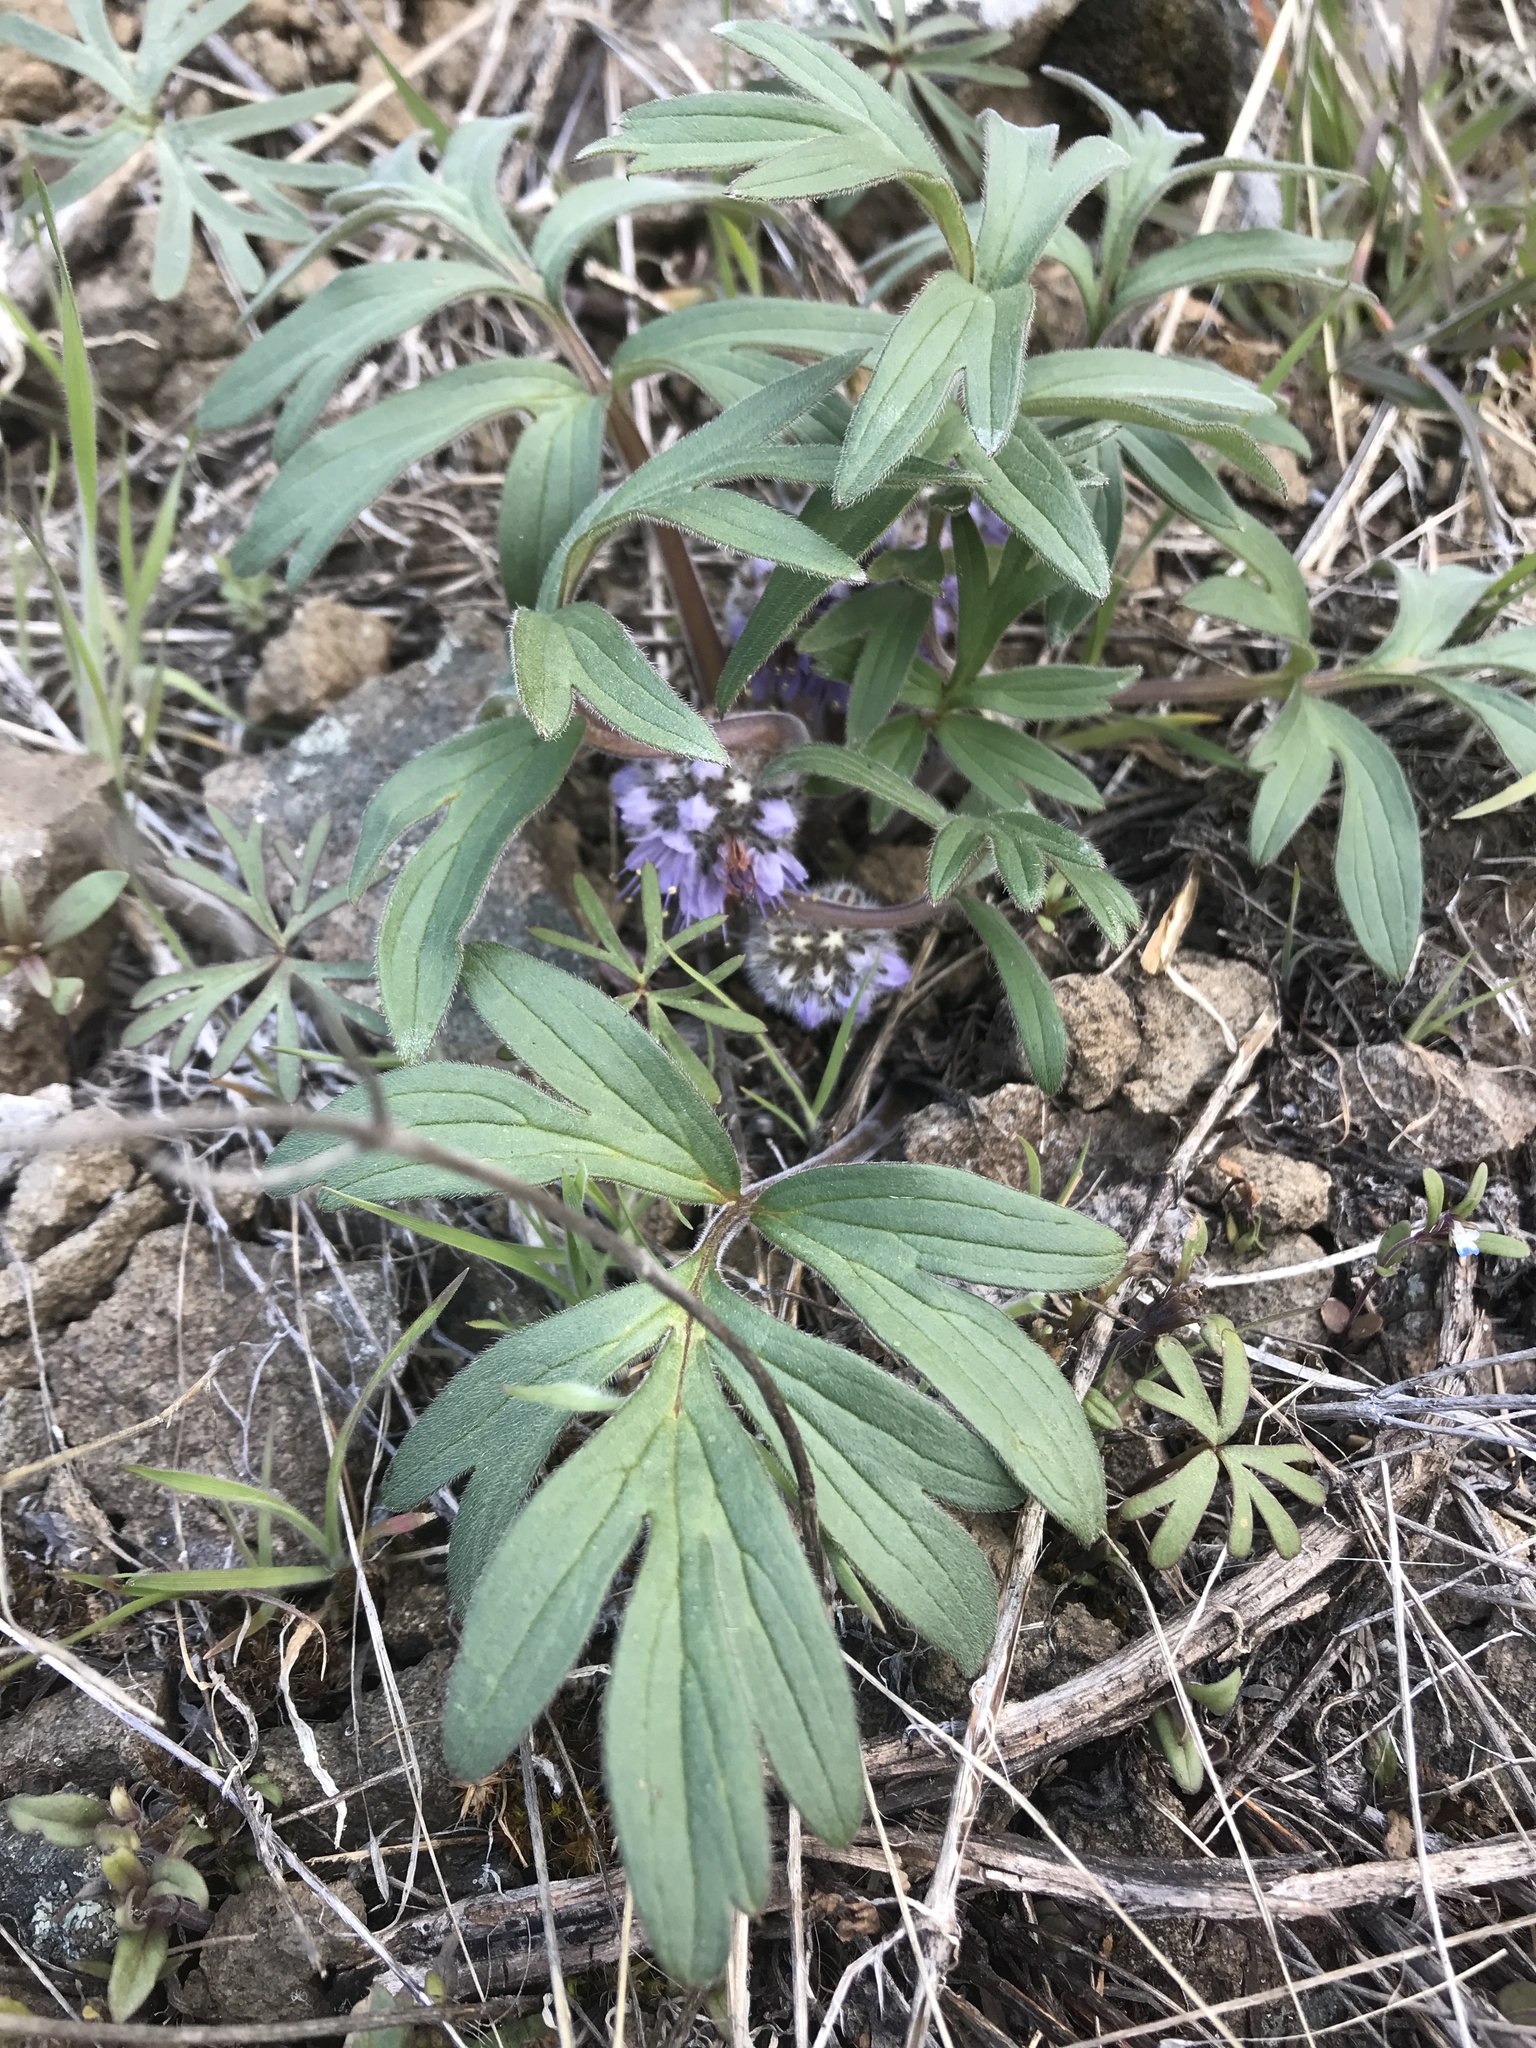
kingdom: Plantae
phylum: Tracheophyta
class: Magnoliopsida
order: Boraginales
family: Hydrophyllaceae
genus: Hydrophyllum
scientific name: Hydrophyllum capitatum
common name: Woollen-breeches
